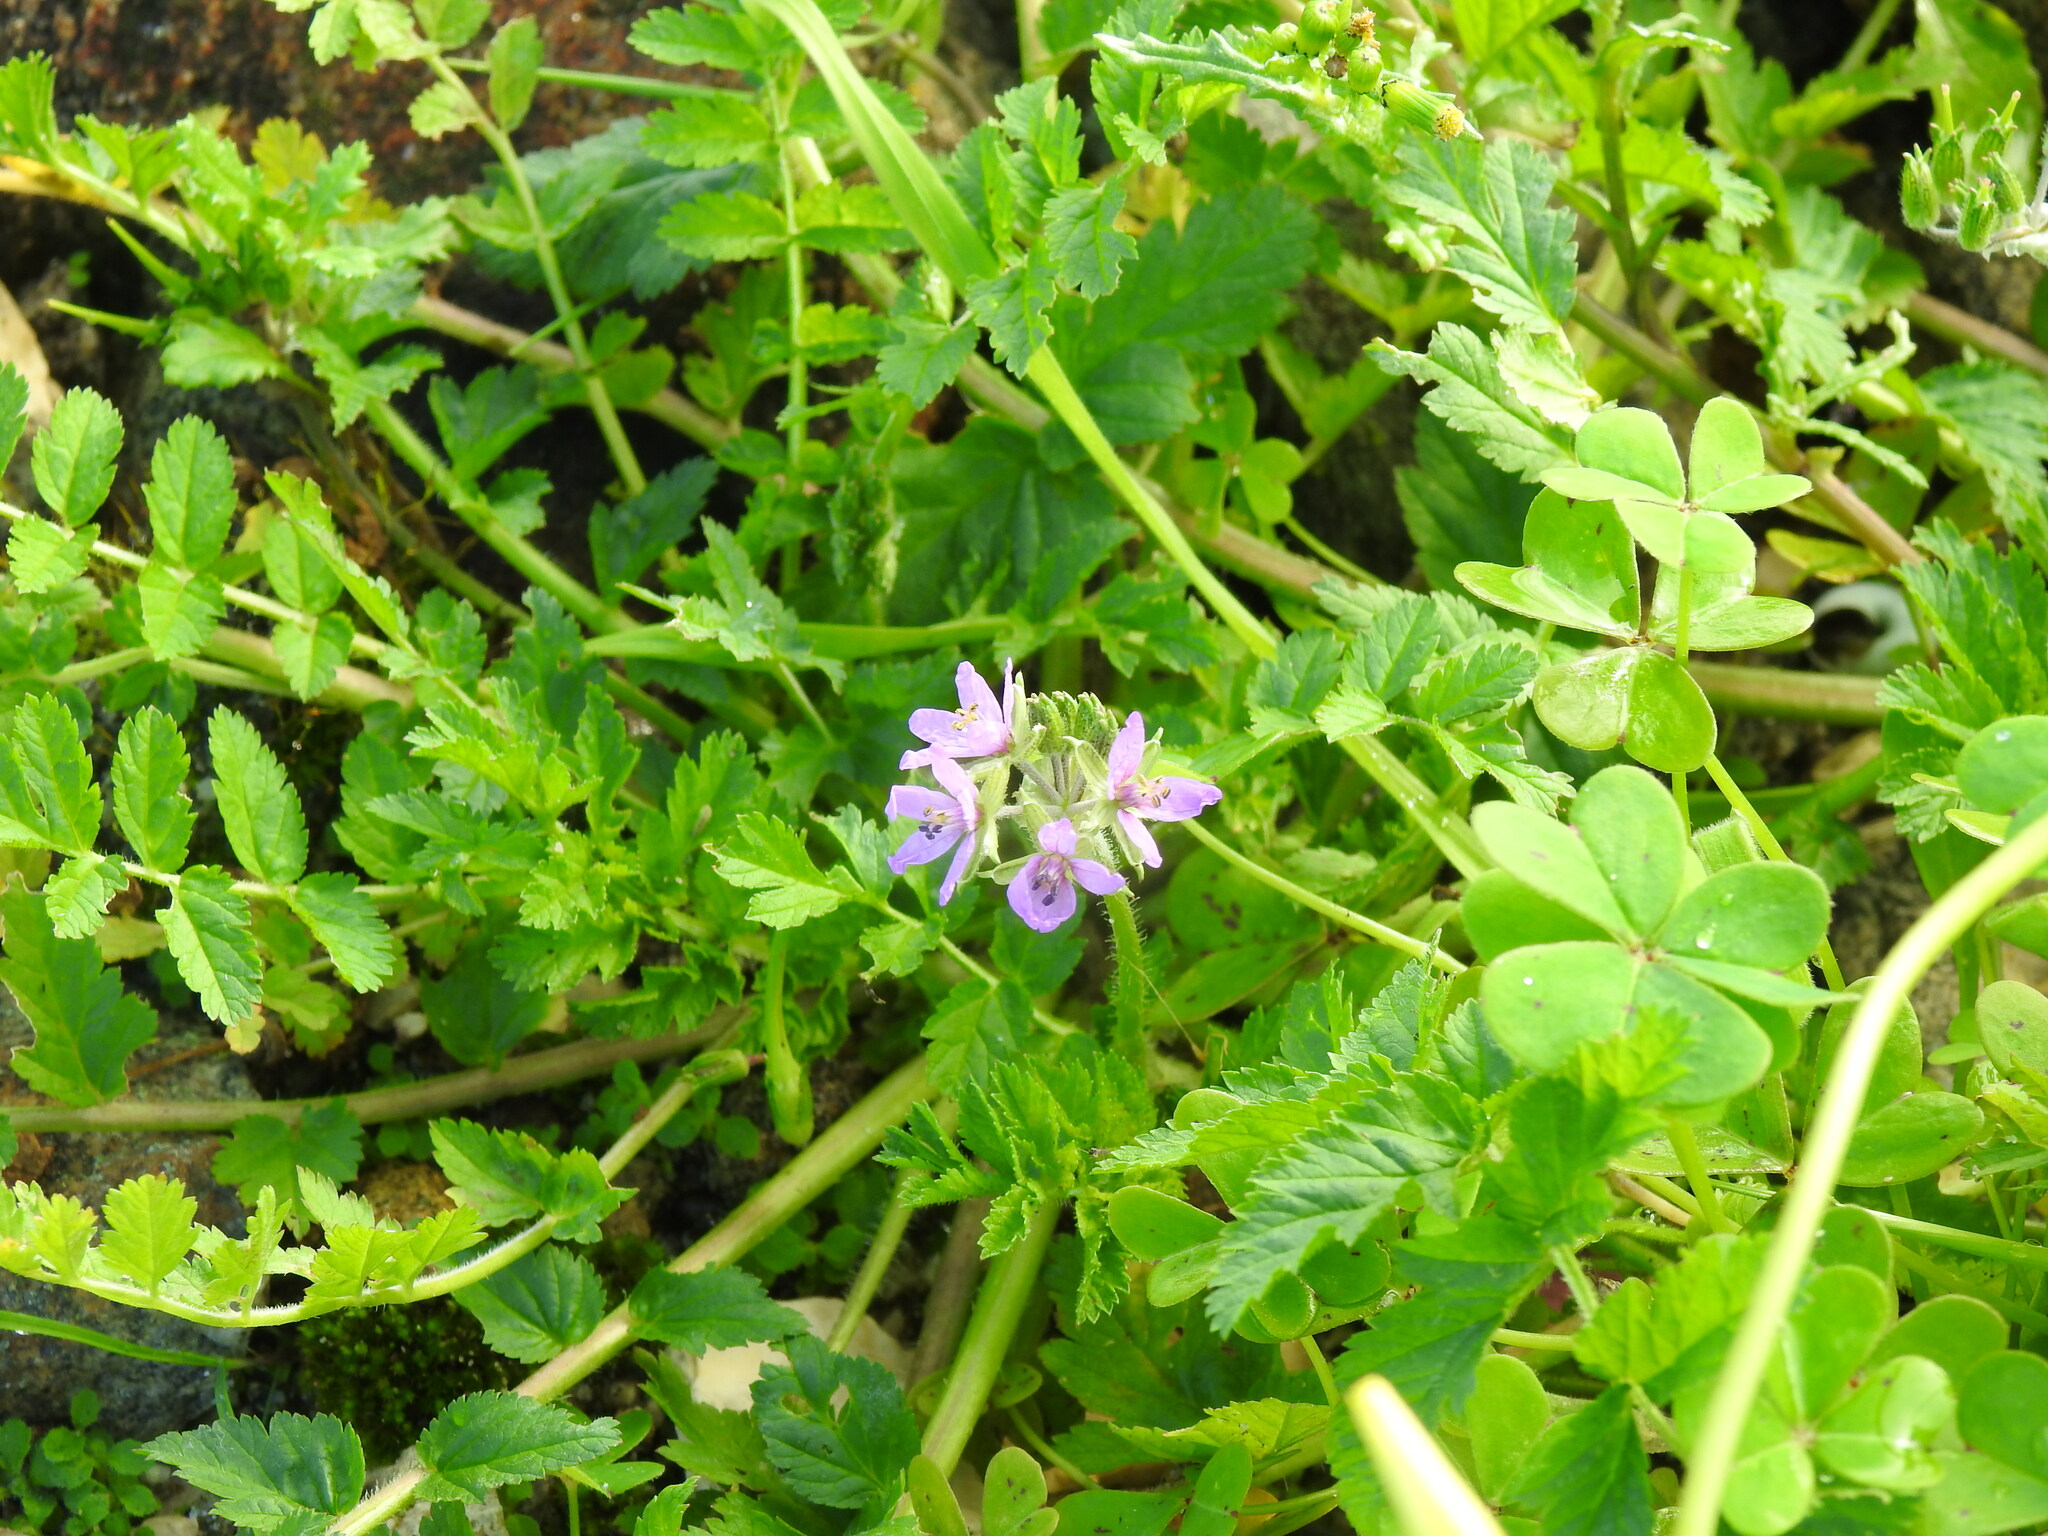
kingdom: Plantae
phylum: Tracheophyta
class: Magnoliopsida
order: Geraniales
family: Geraniaceae
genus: Erodium
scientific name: Erodium moschatum
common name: Musk stork's-bill
